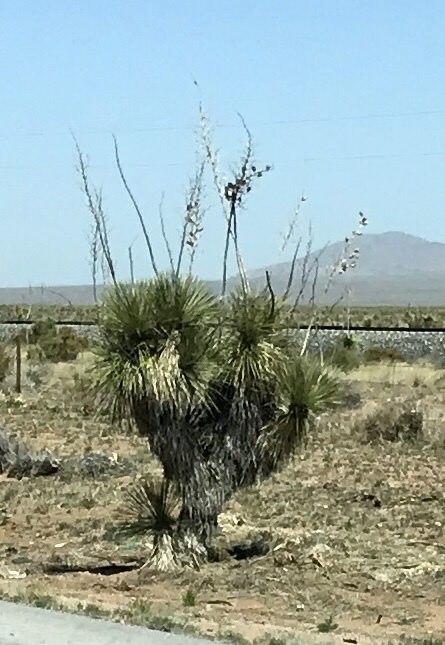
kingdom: Plantae
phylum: Tracheophyta
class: Liliopsida
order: Asparagales
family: Asparagaceae
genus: Yucca
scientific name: Yucca elata
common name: Palmella
